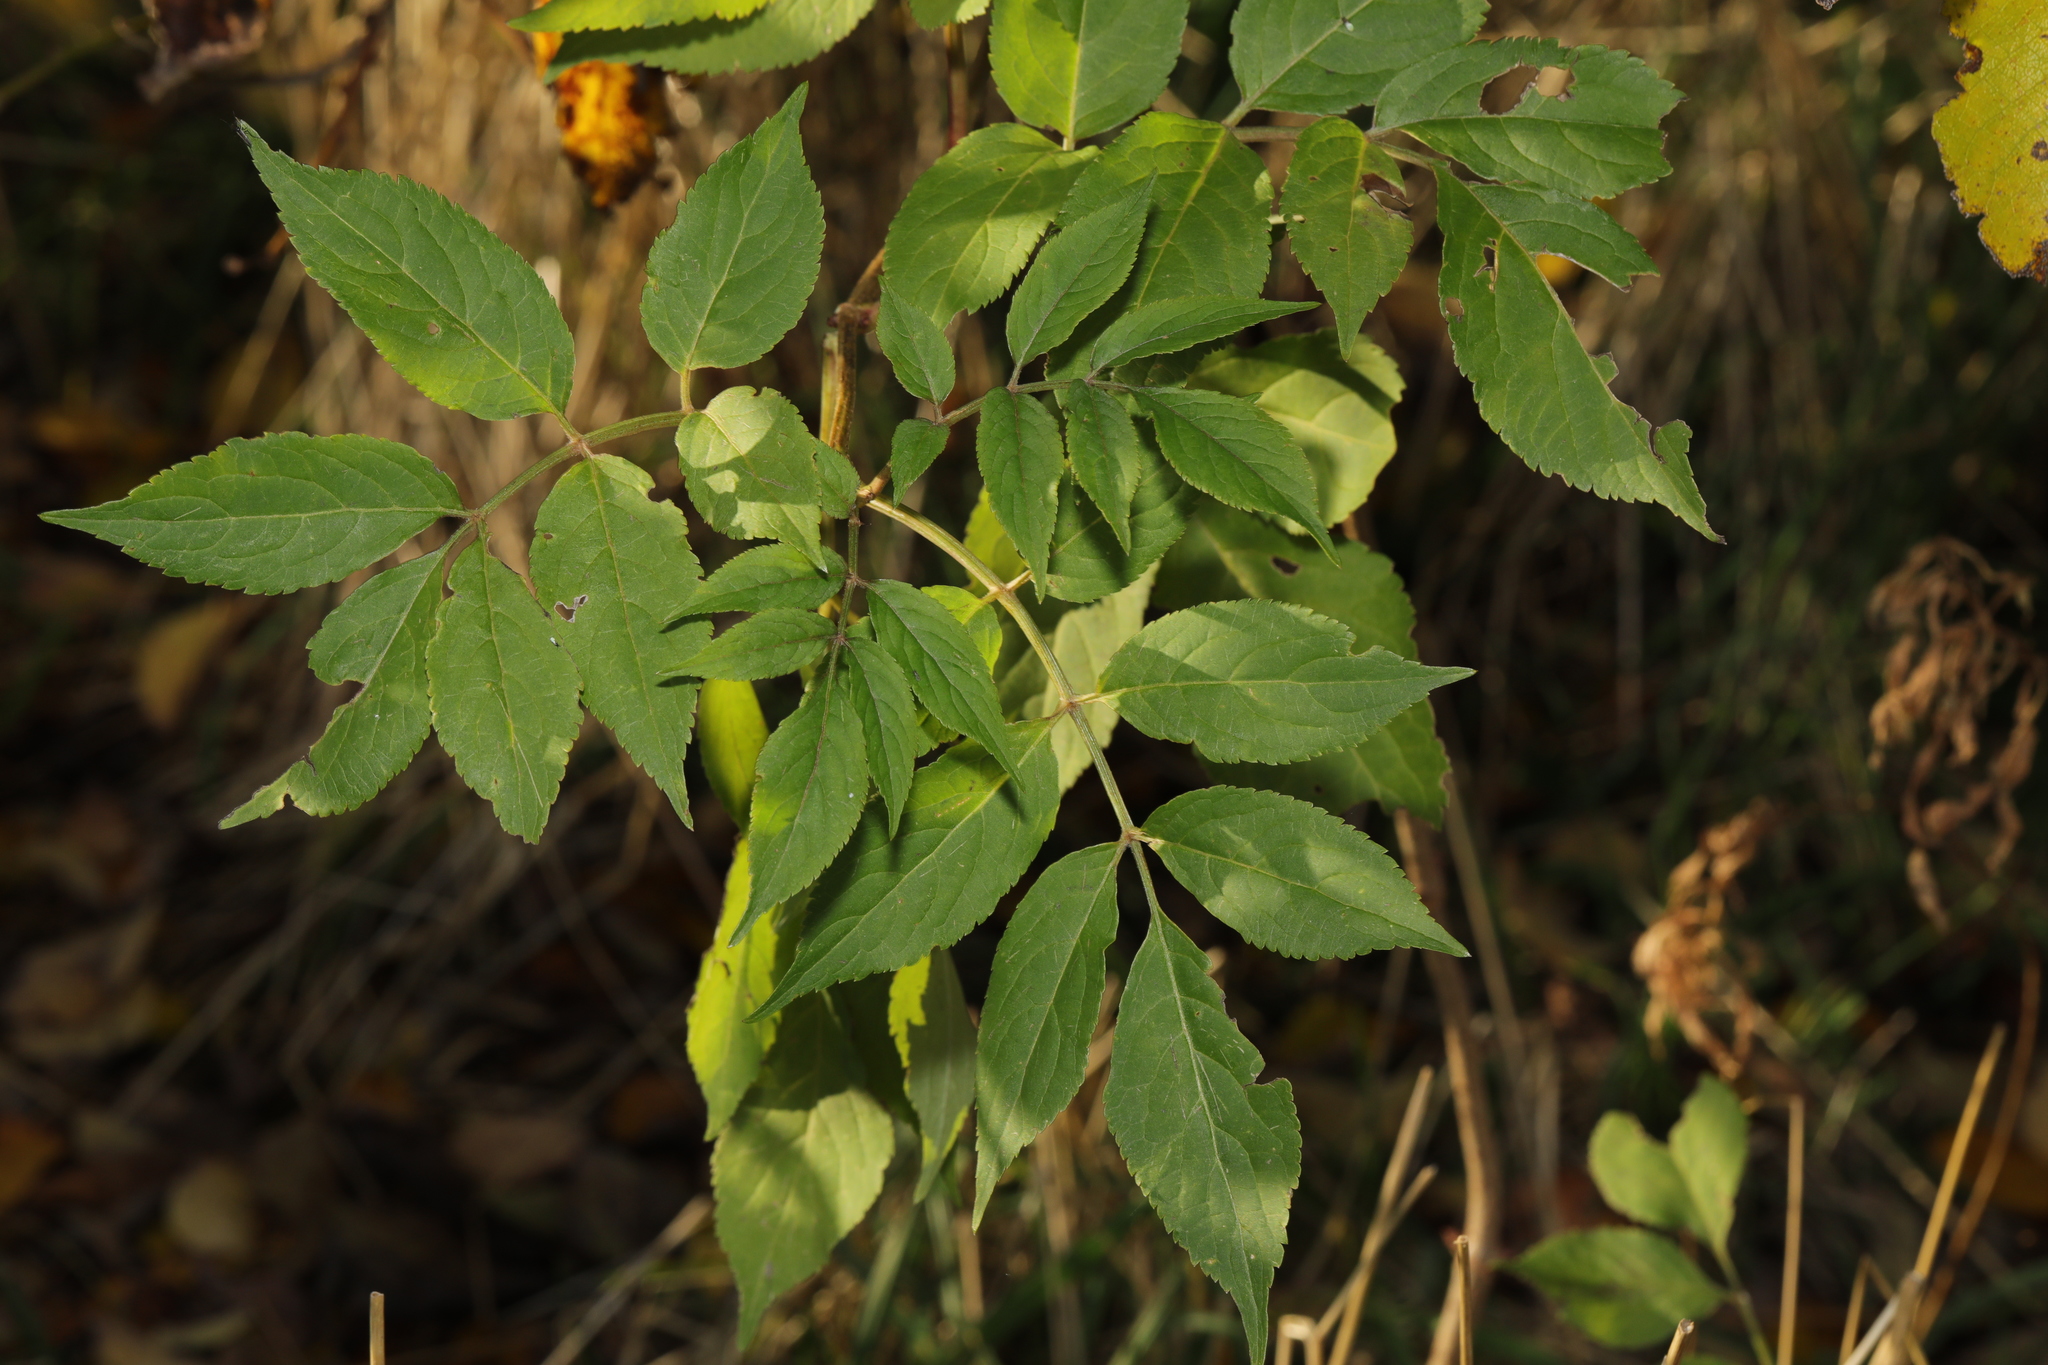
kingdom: Plantae
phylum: Tracheophyta
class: Magnoliopsida
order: Dipsacales
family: Viburnaceae
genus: Sambucus
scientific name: Sambucus nigra
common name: Elder
